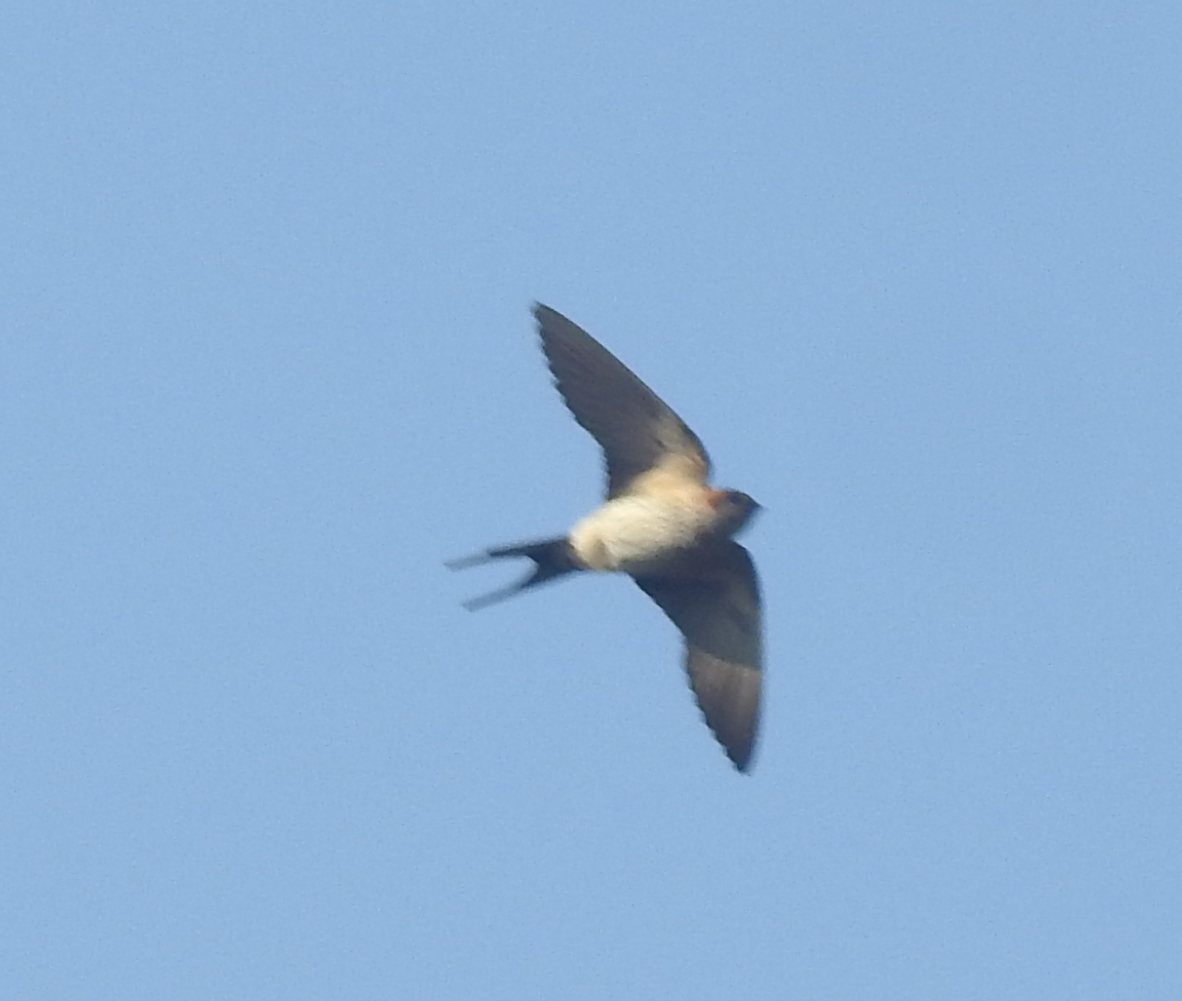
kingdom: Animalia
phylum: Chordata
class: Aves
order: Passeriformes
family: Hirundinidae
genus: Cecropis
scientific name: Cecropis daurica
